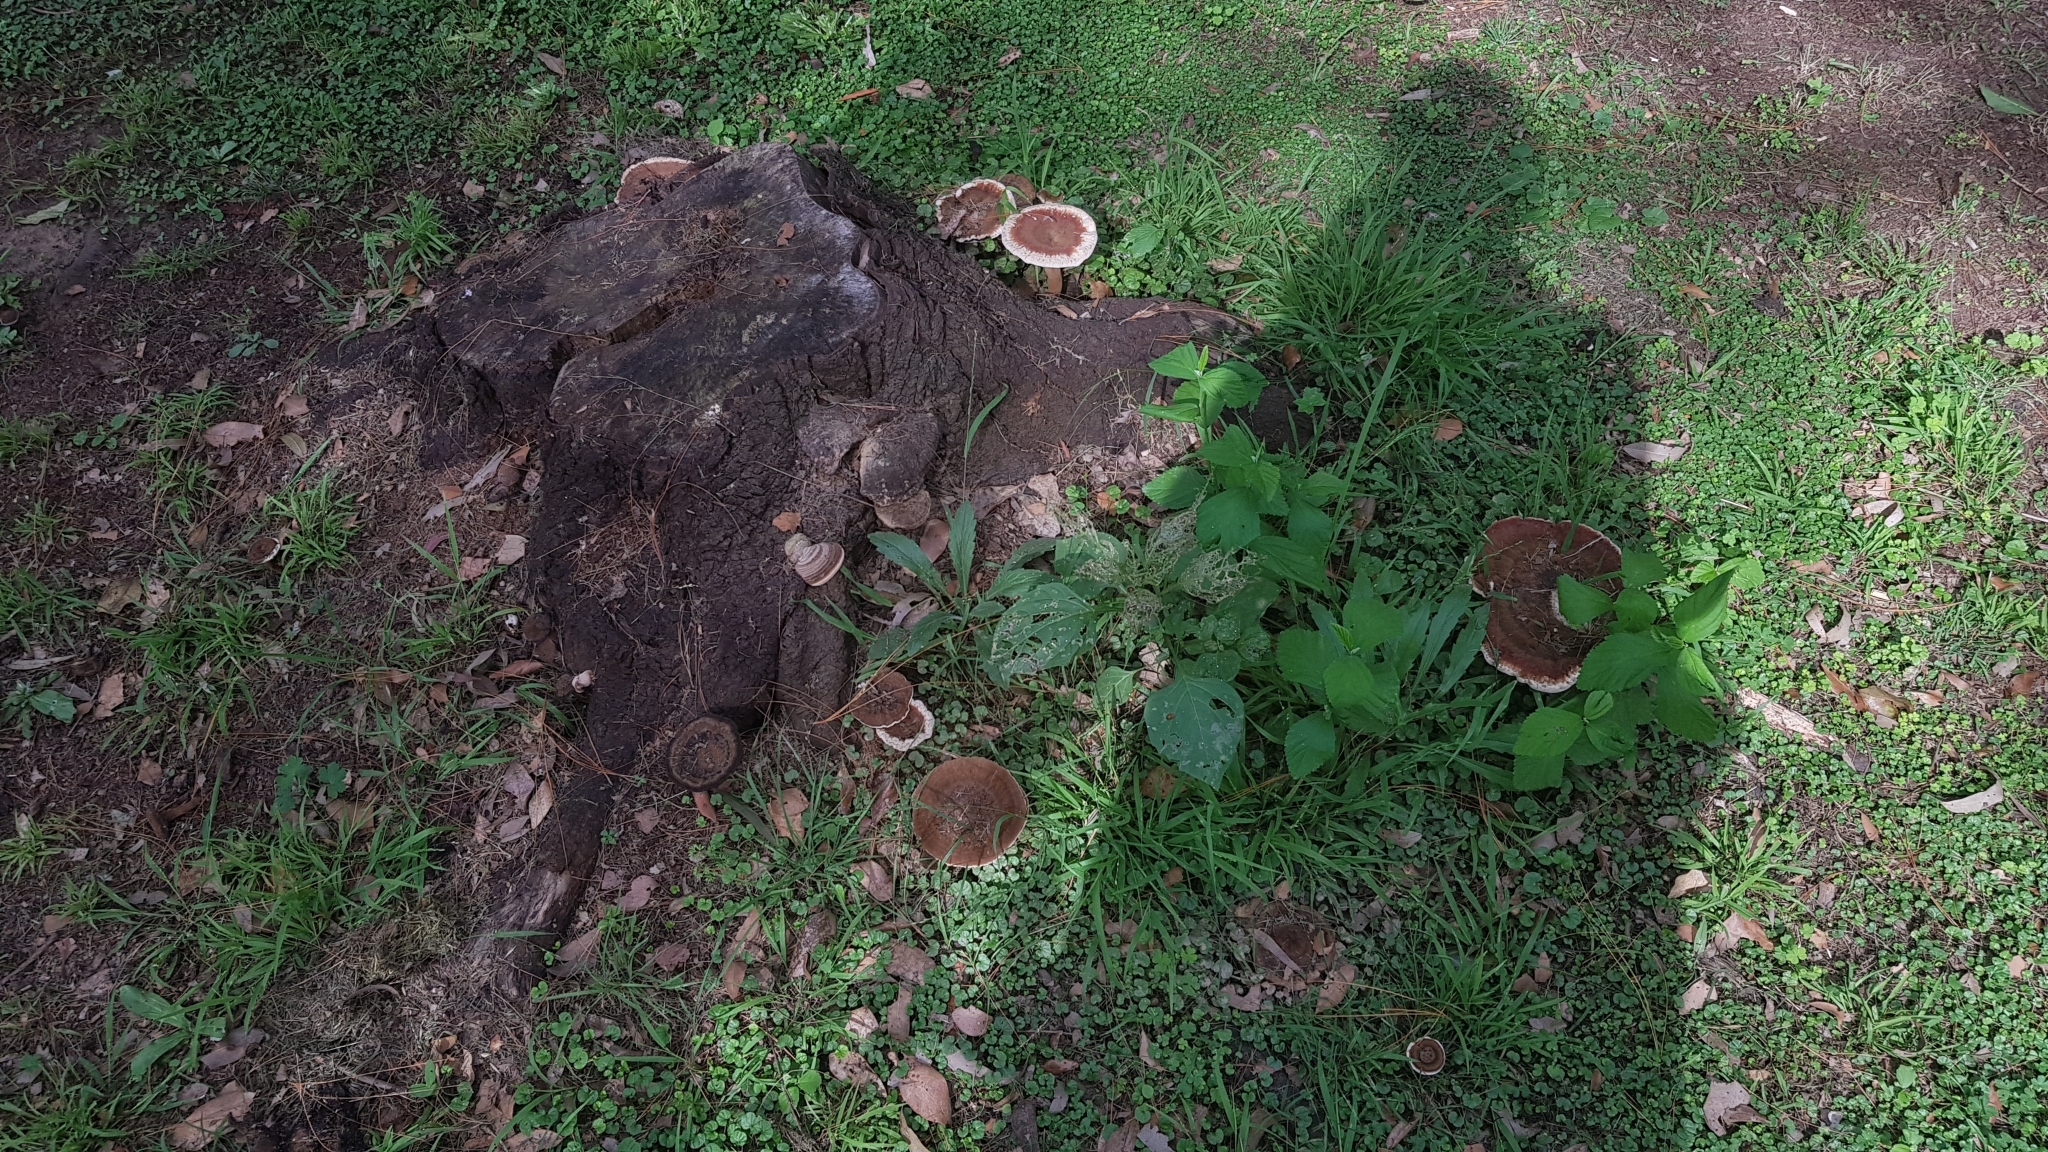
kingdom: Fungi
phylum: Basidiomycota
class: Agaricomycetes
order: Polyporales
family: Ganodermataceae
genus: Sanguinoderma
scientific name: Sanguinoderma rude
